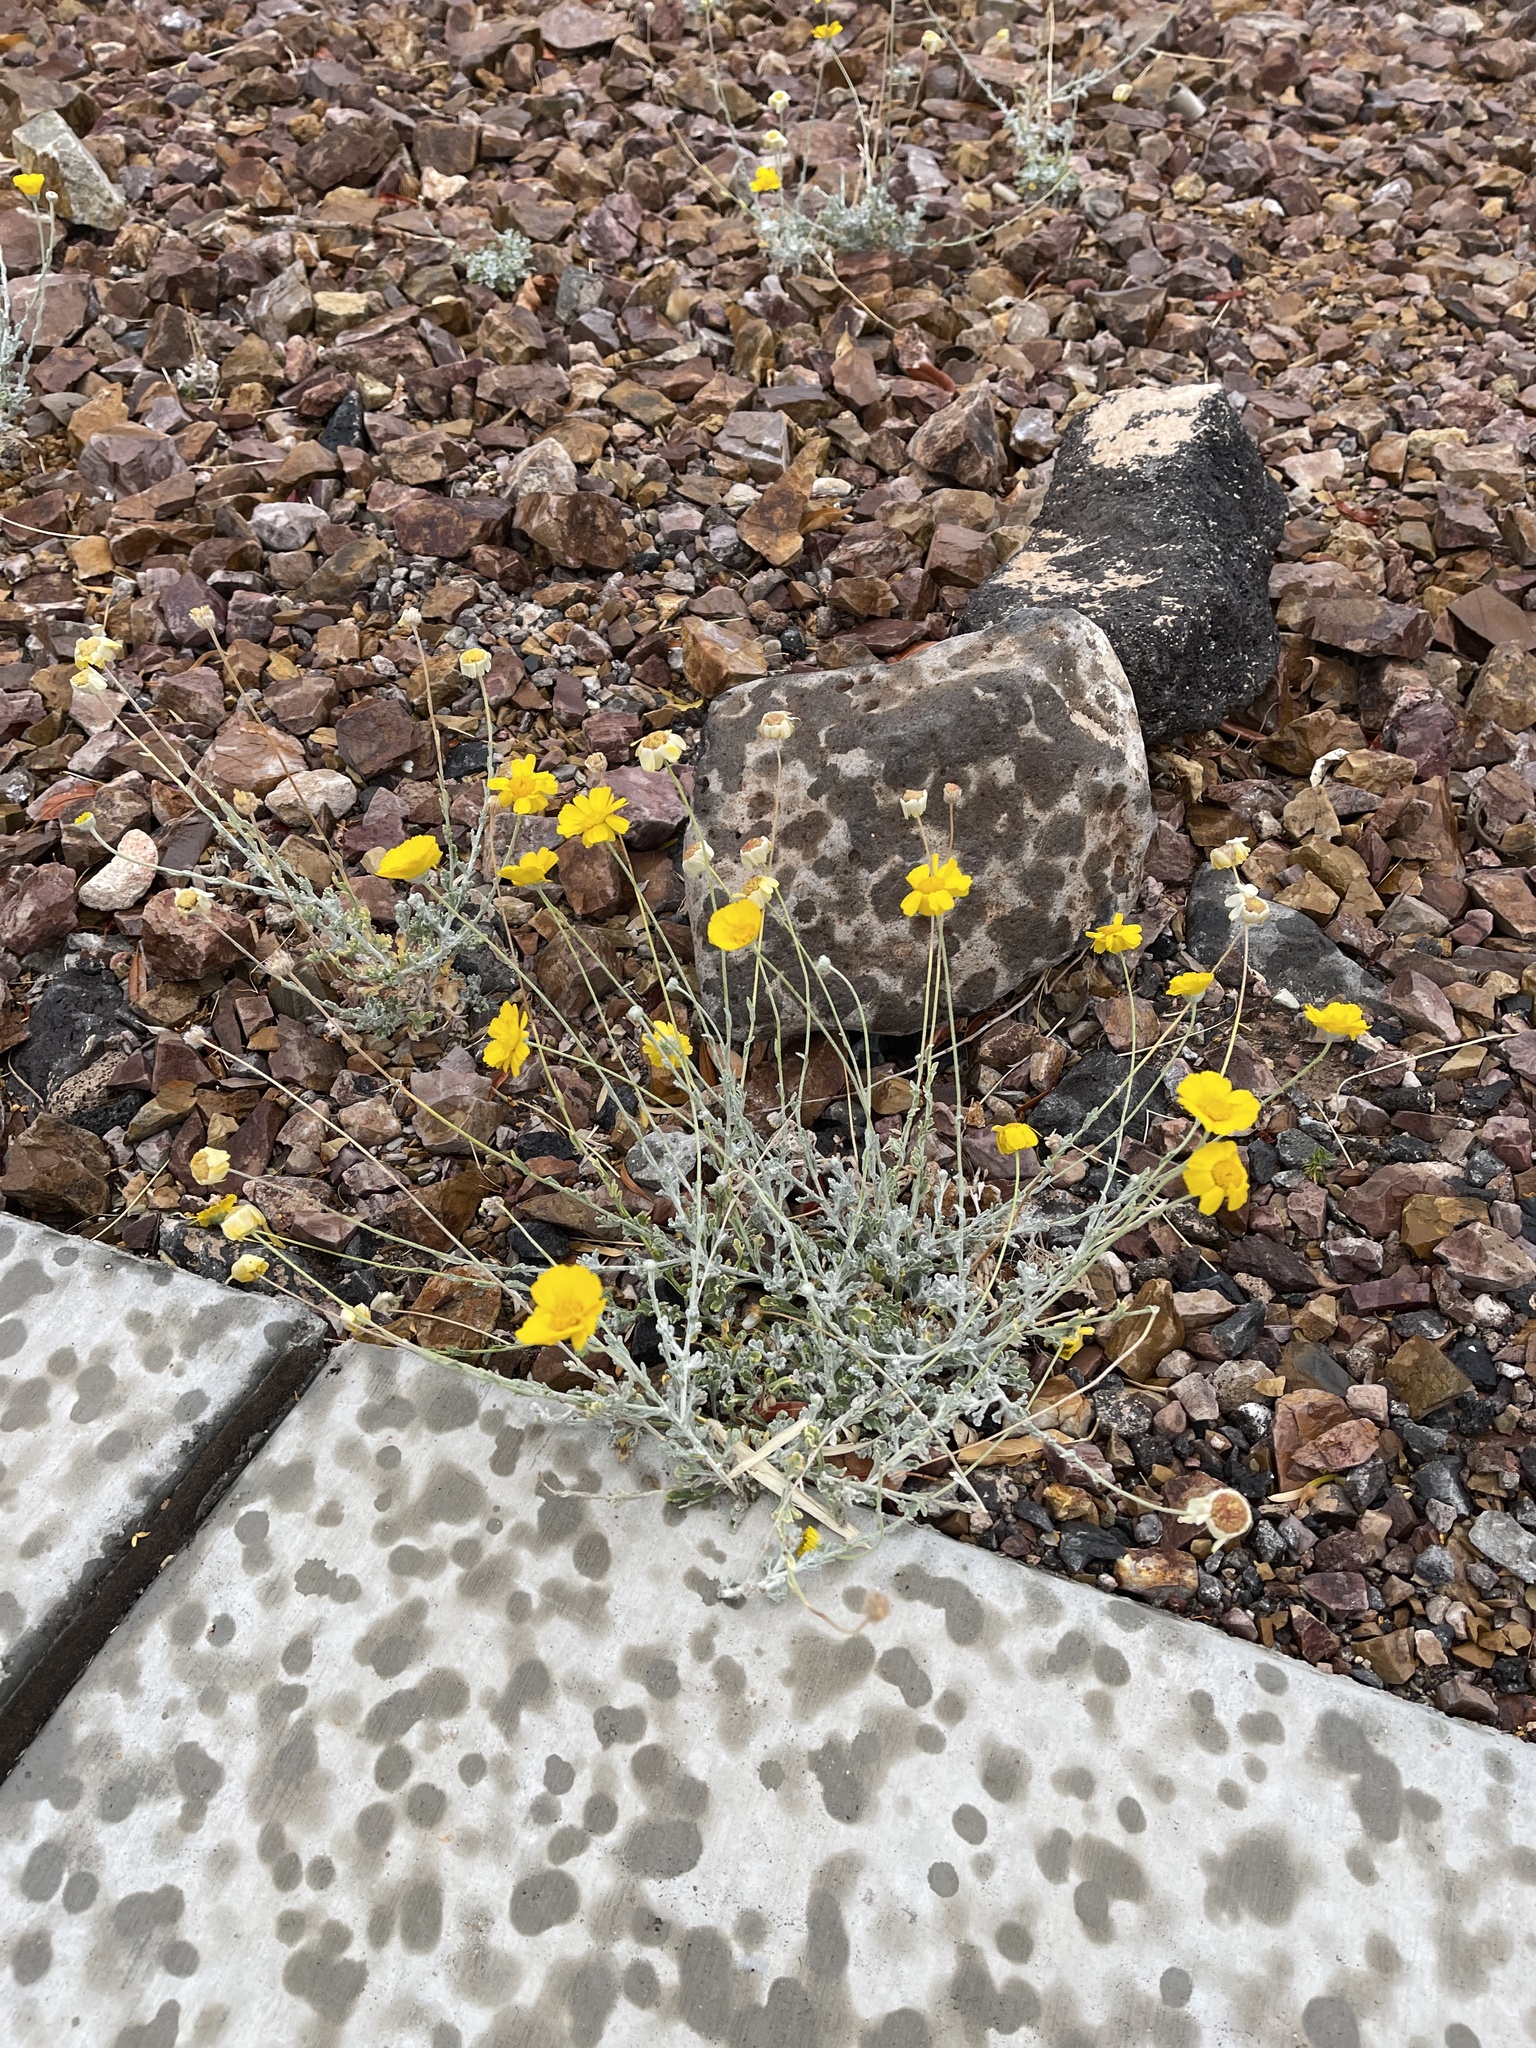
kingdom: Plantae
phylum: Tracheophyta
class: Magnoliopsida
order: Asterales
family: Asteraceae
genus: Baileya
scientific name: Baileya multiradiata
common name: Desert-marigold
